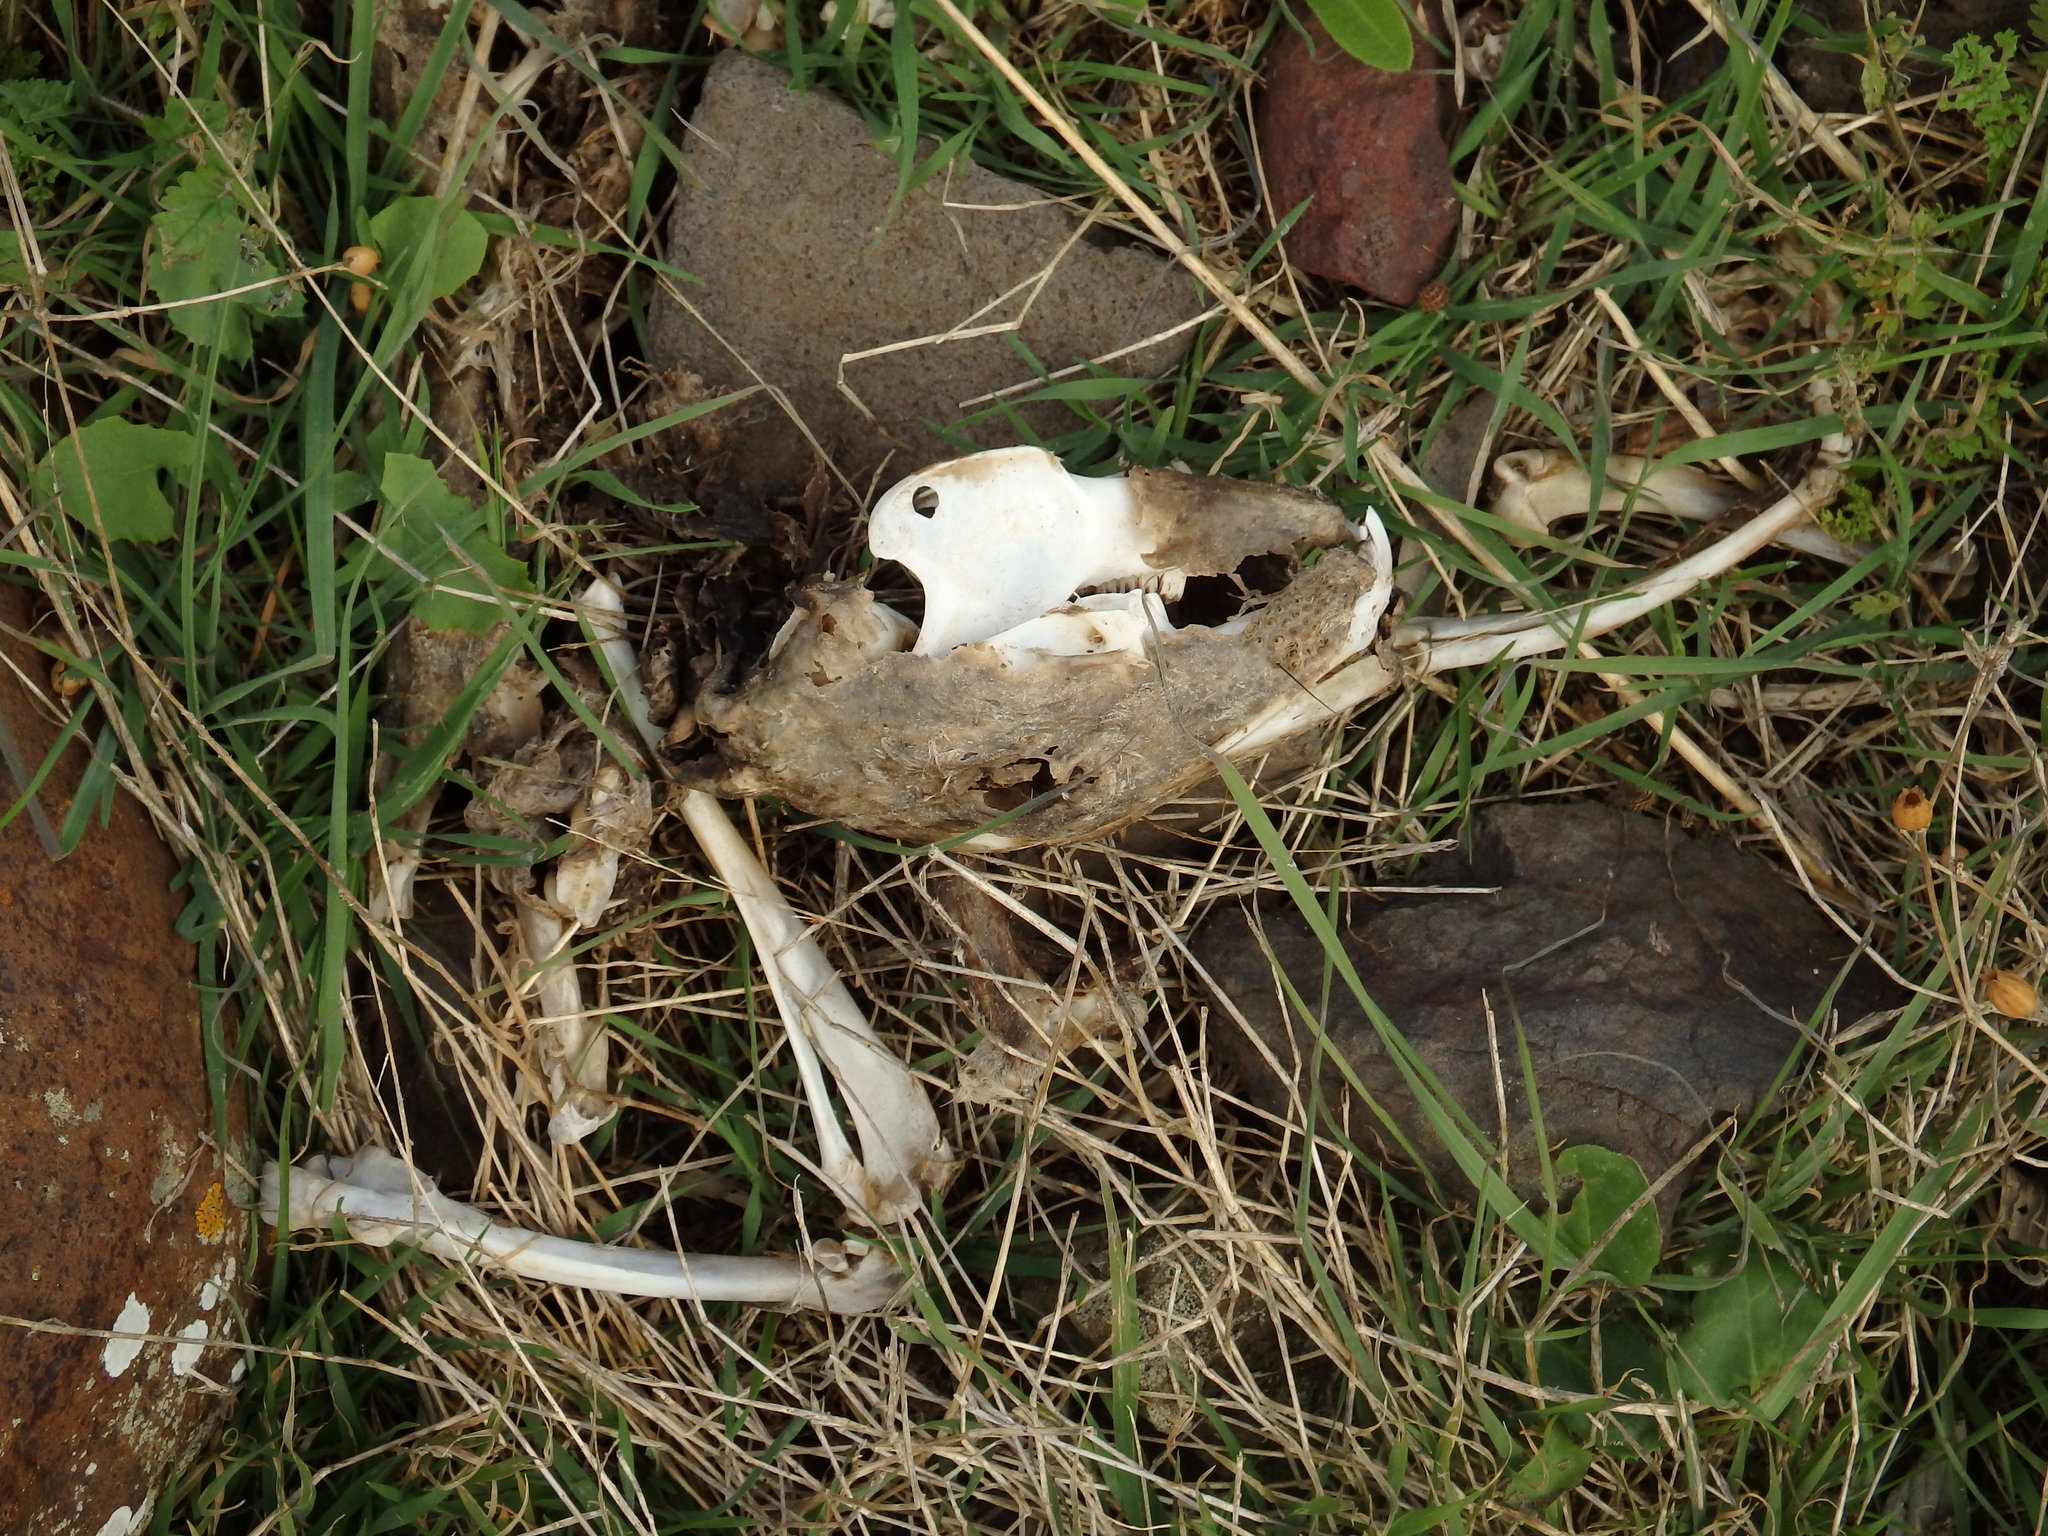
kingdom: Animalia
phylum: Chordata
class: Mammalia
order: Lagomorpha
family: Leporidae
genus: Oryctolagus
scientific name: Oryctolagus cuniculus
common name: European rabbit
